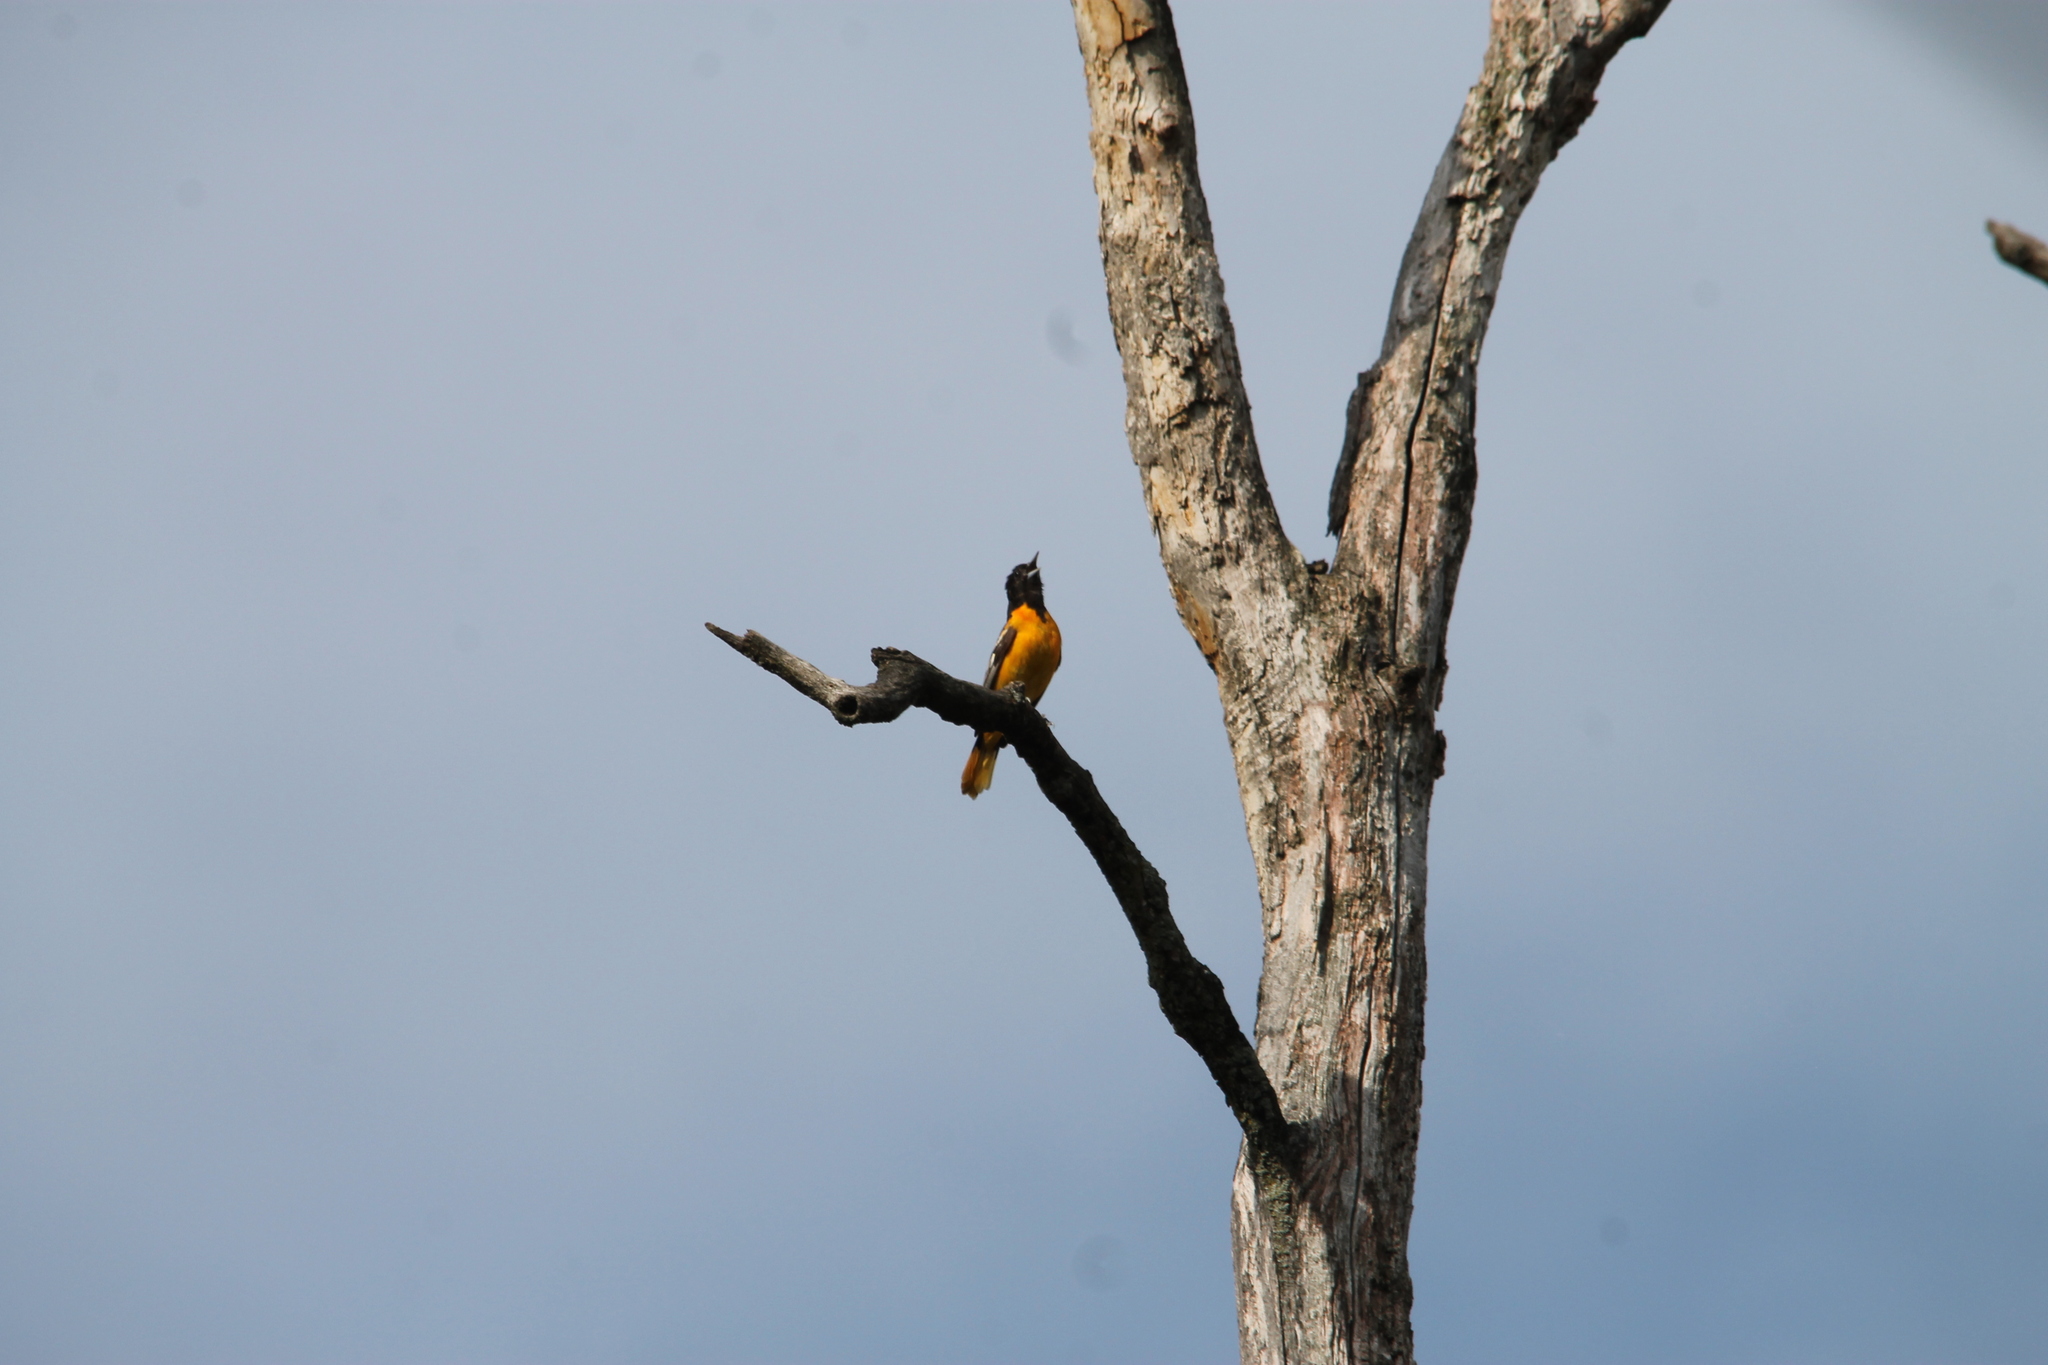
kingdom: Animalia
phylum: Chordata
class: Aves
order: Passeriformes
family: Icteridae
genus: Icterus
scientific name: Icterus galbula
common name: Baltimore oriole
